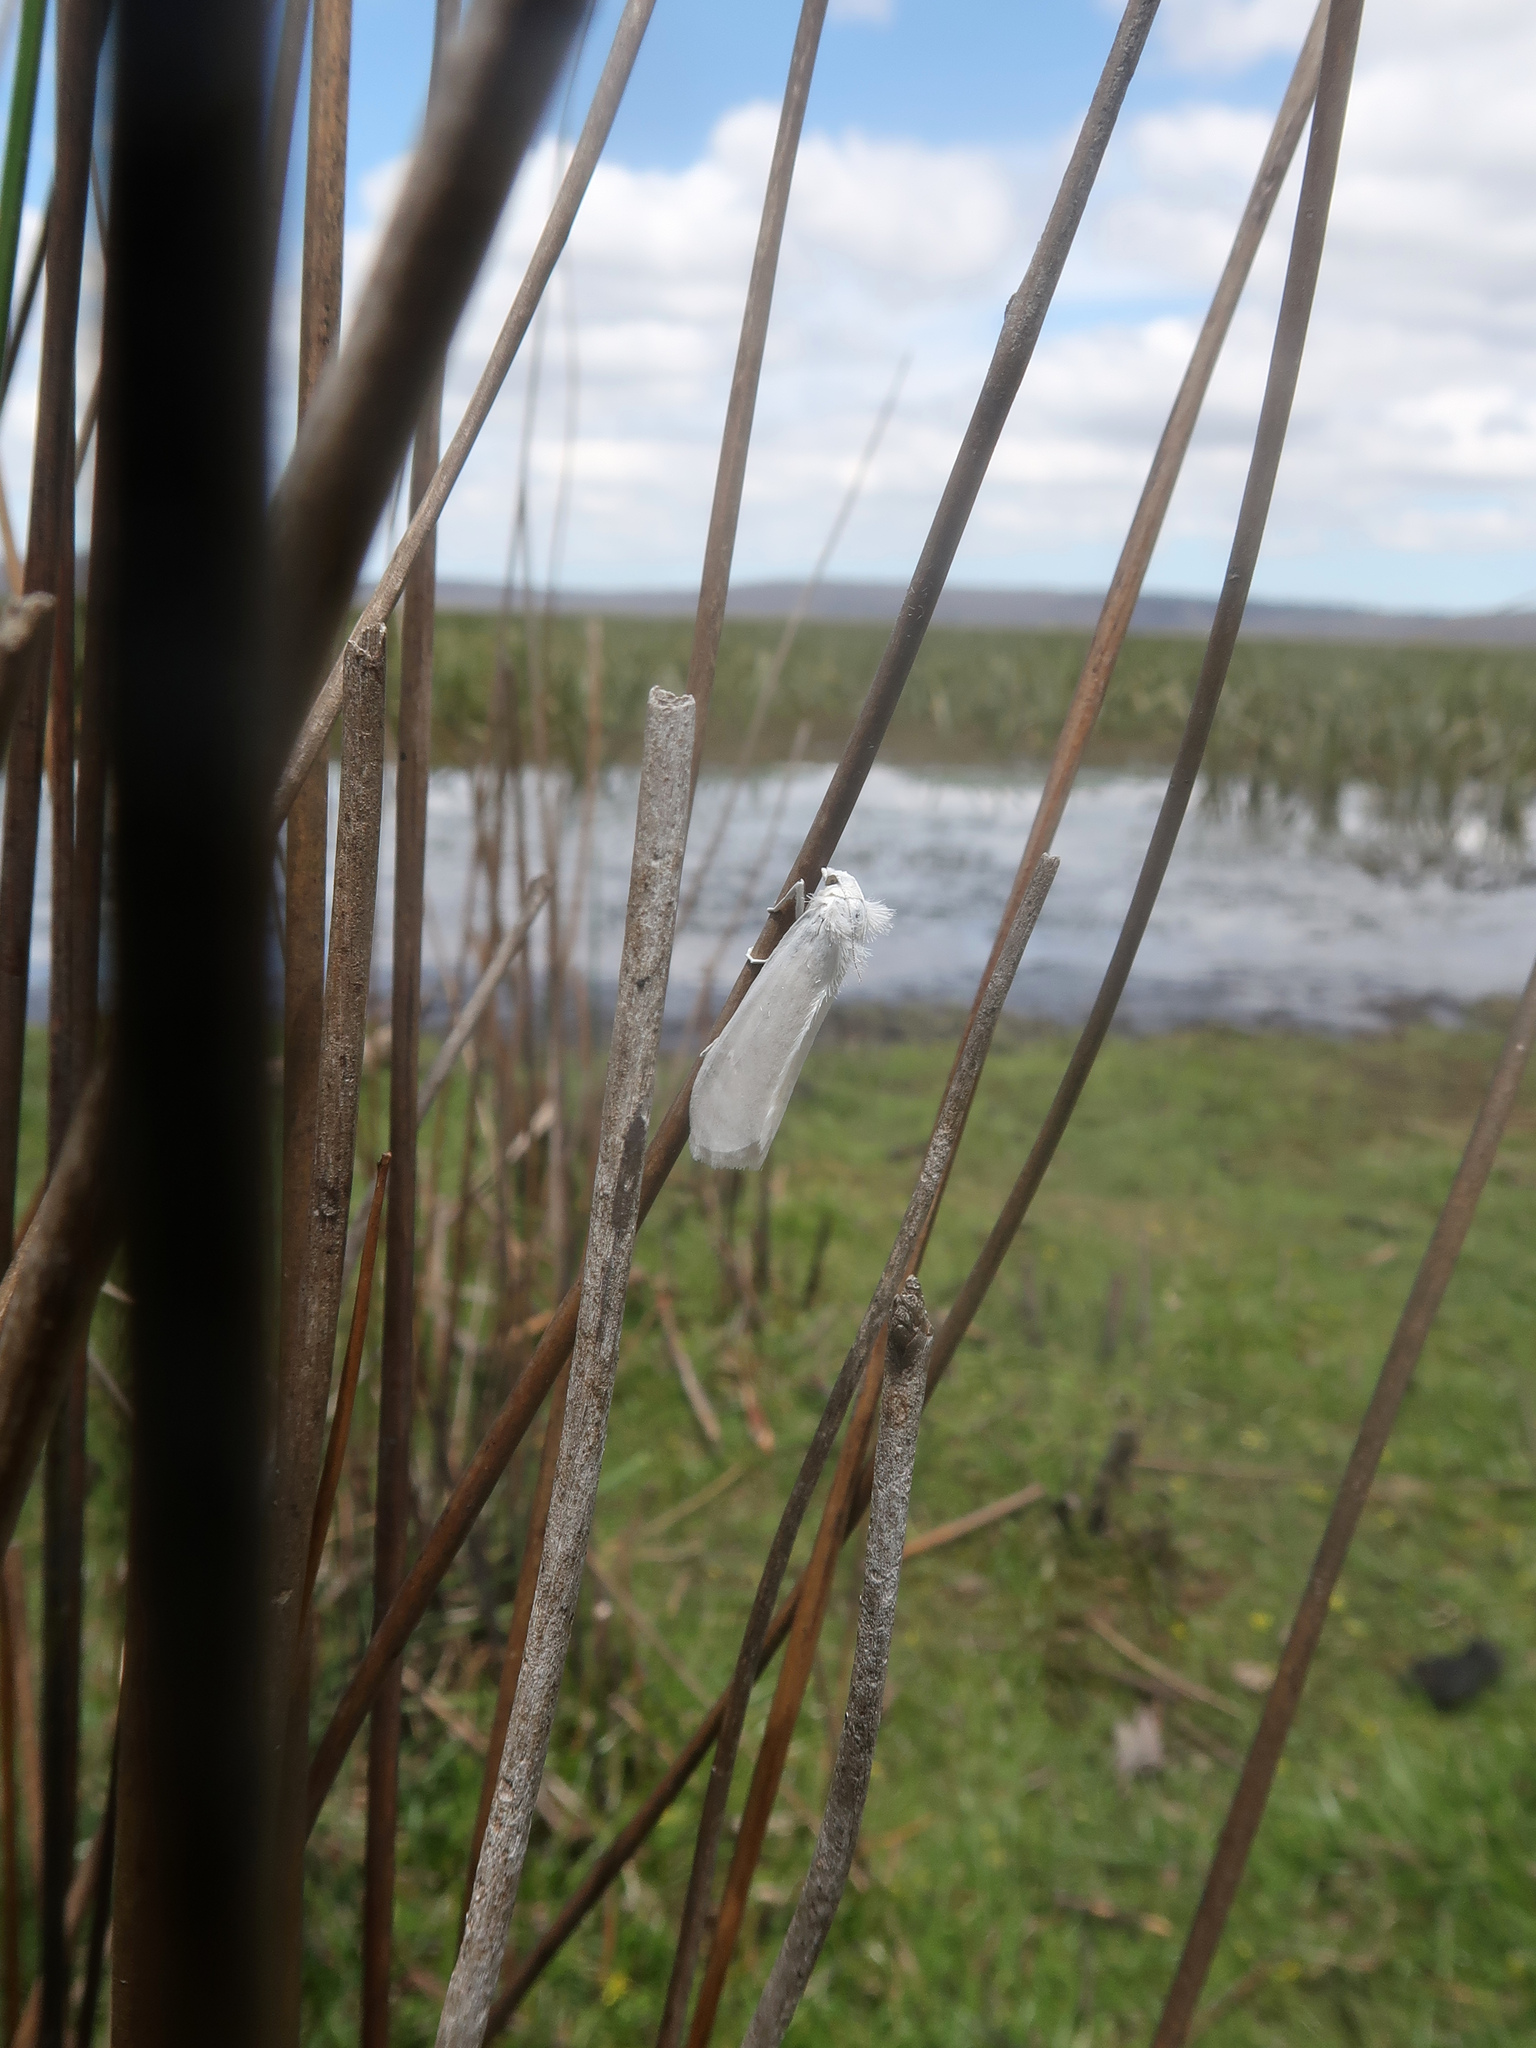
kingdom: Animalia
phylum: Arthropoda
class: Insecta
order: Lepidoptera
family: Crambidae
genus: Tipanaea
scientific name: Tipanaea patulella
